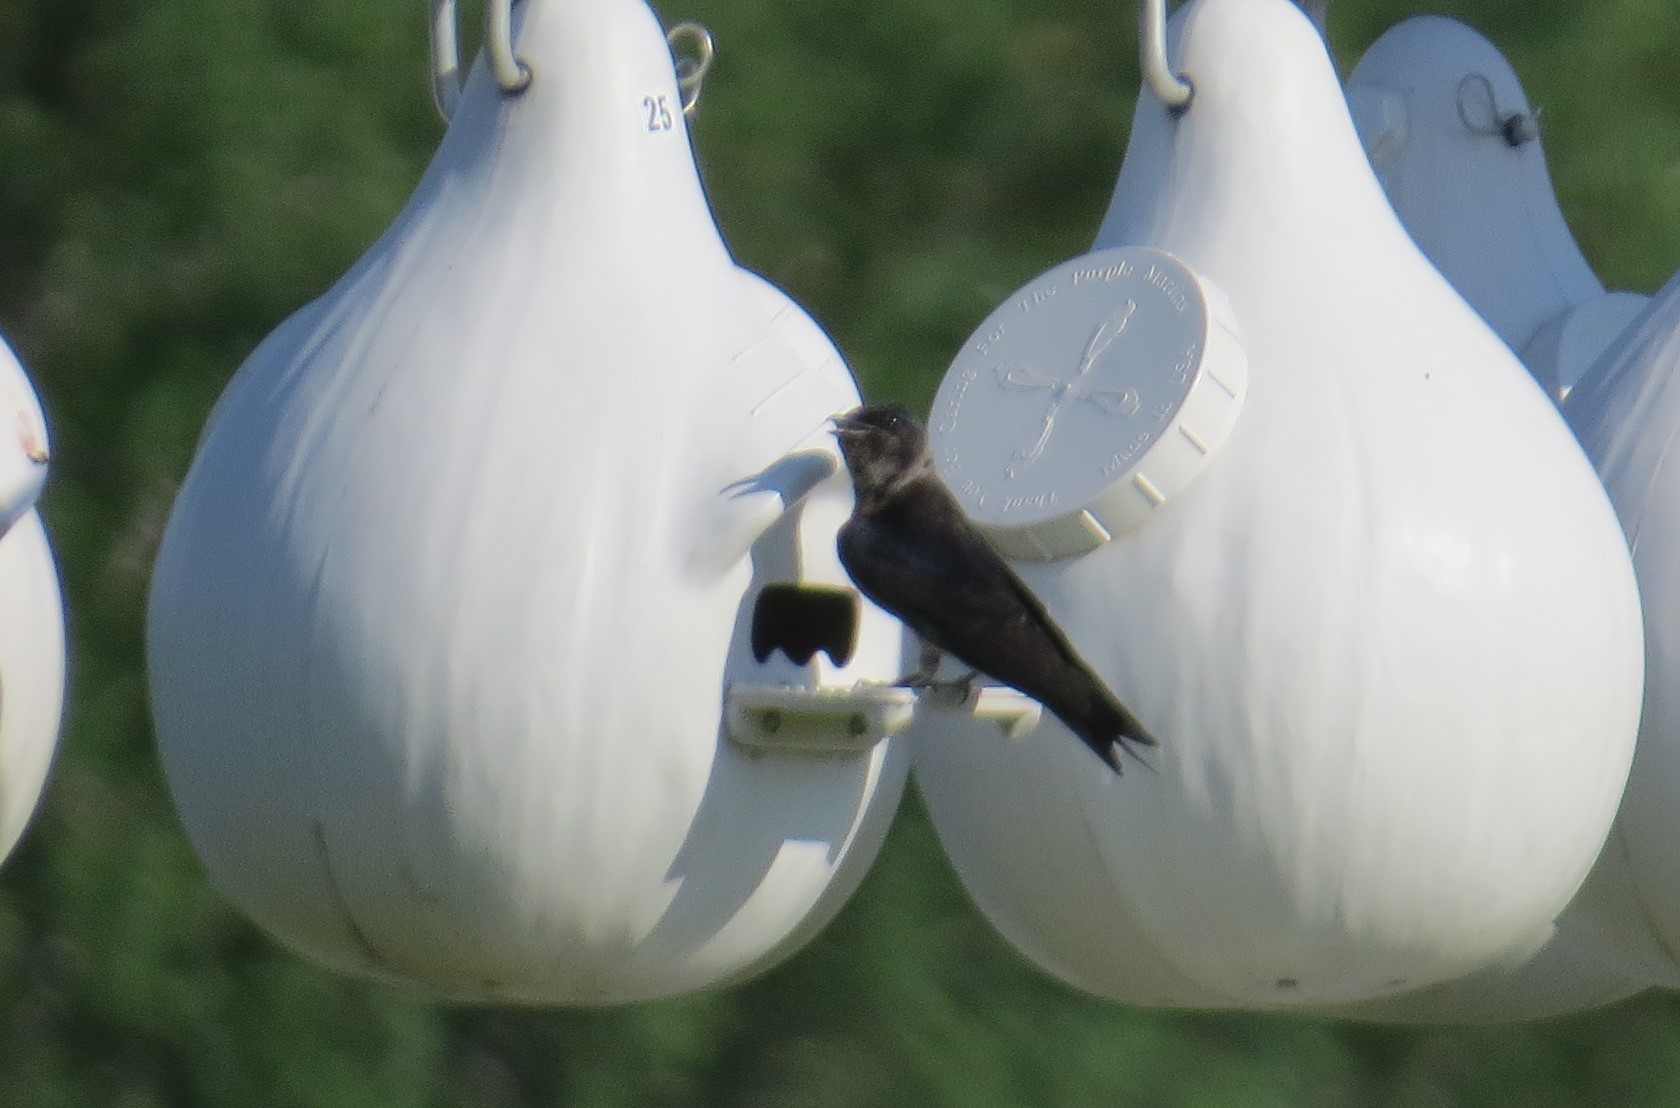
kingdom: Animalia
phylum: Chordata
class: Aves
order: Passeriformes
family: Hirundinidae
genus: Progne
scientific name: Progne subis
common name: Purple martin
